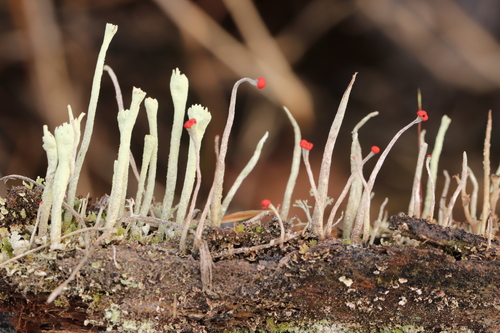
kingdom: Fungi
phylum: Ascomycota
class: Lecanoromycetes
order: Lecanorales
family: Cladoniaceae
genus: Cladonia
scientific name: Cladonia macilenta
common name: Lipstick powderhorn
